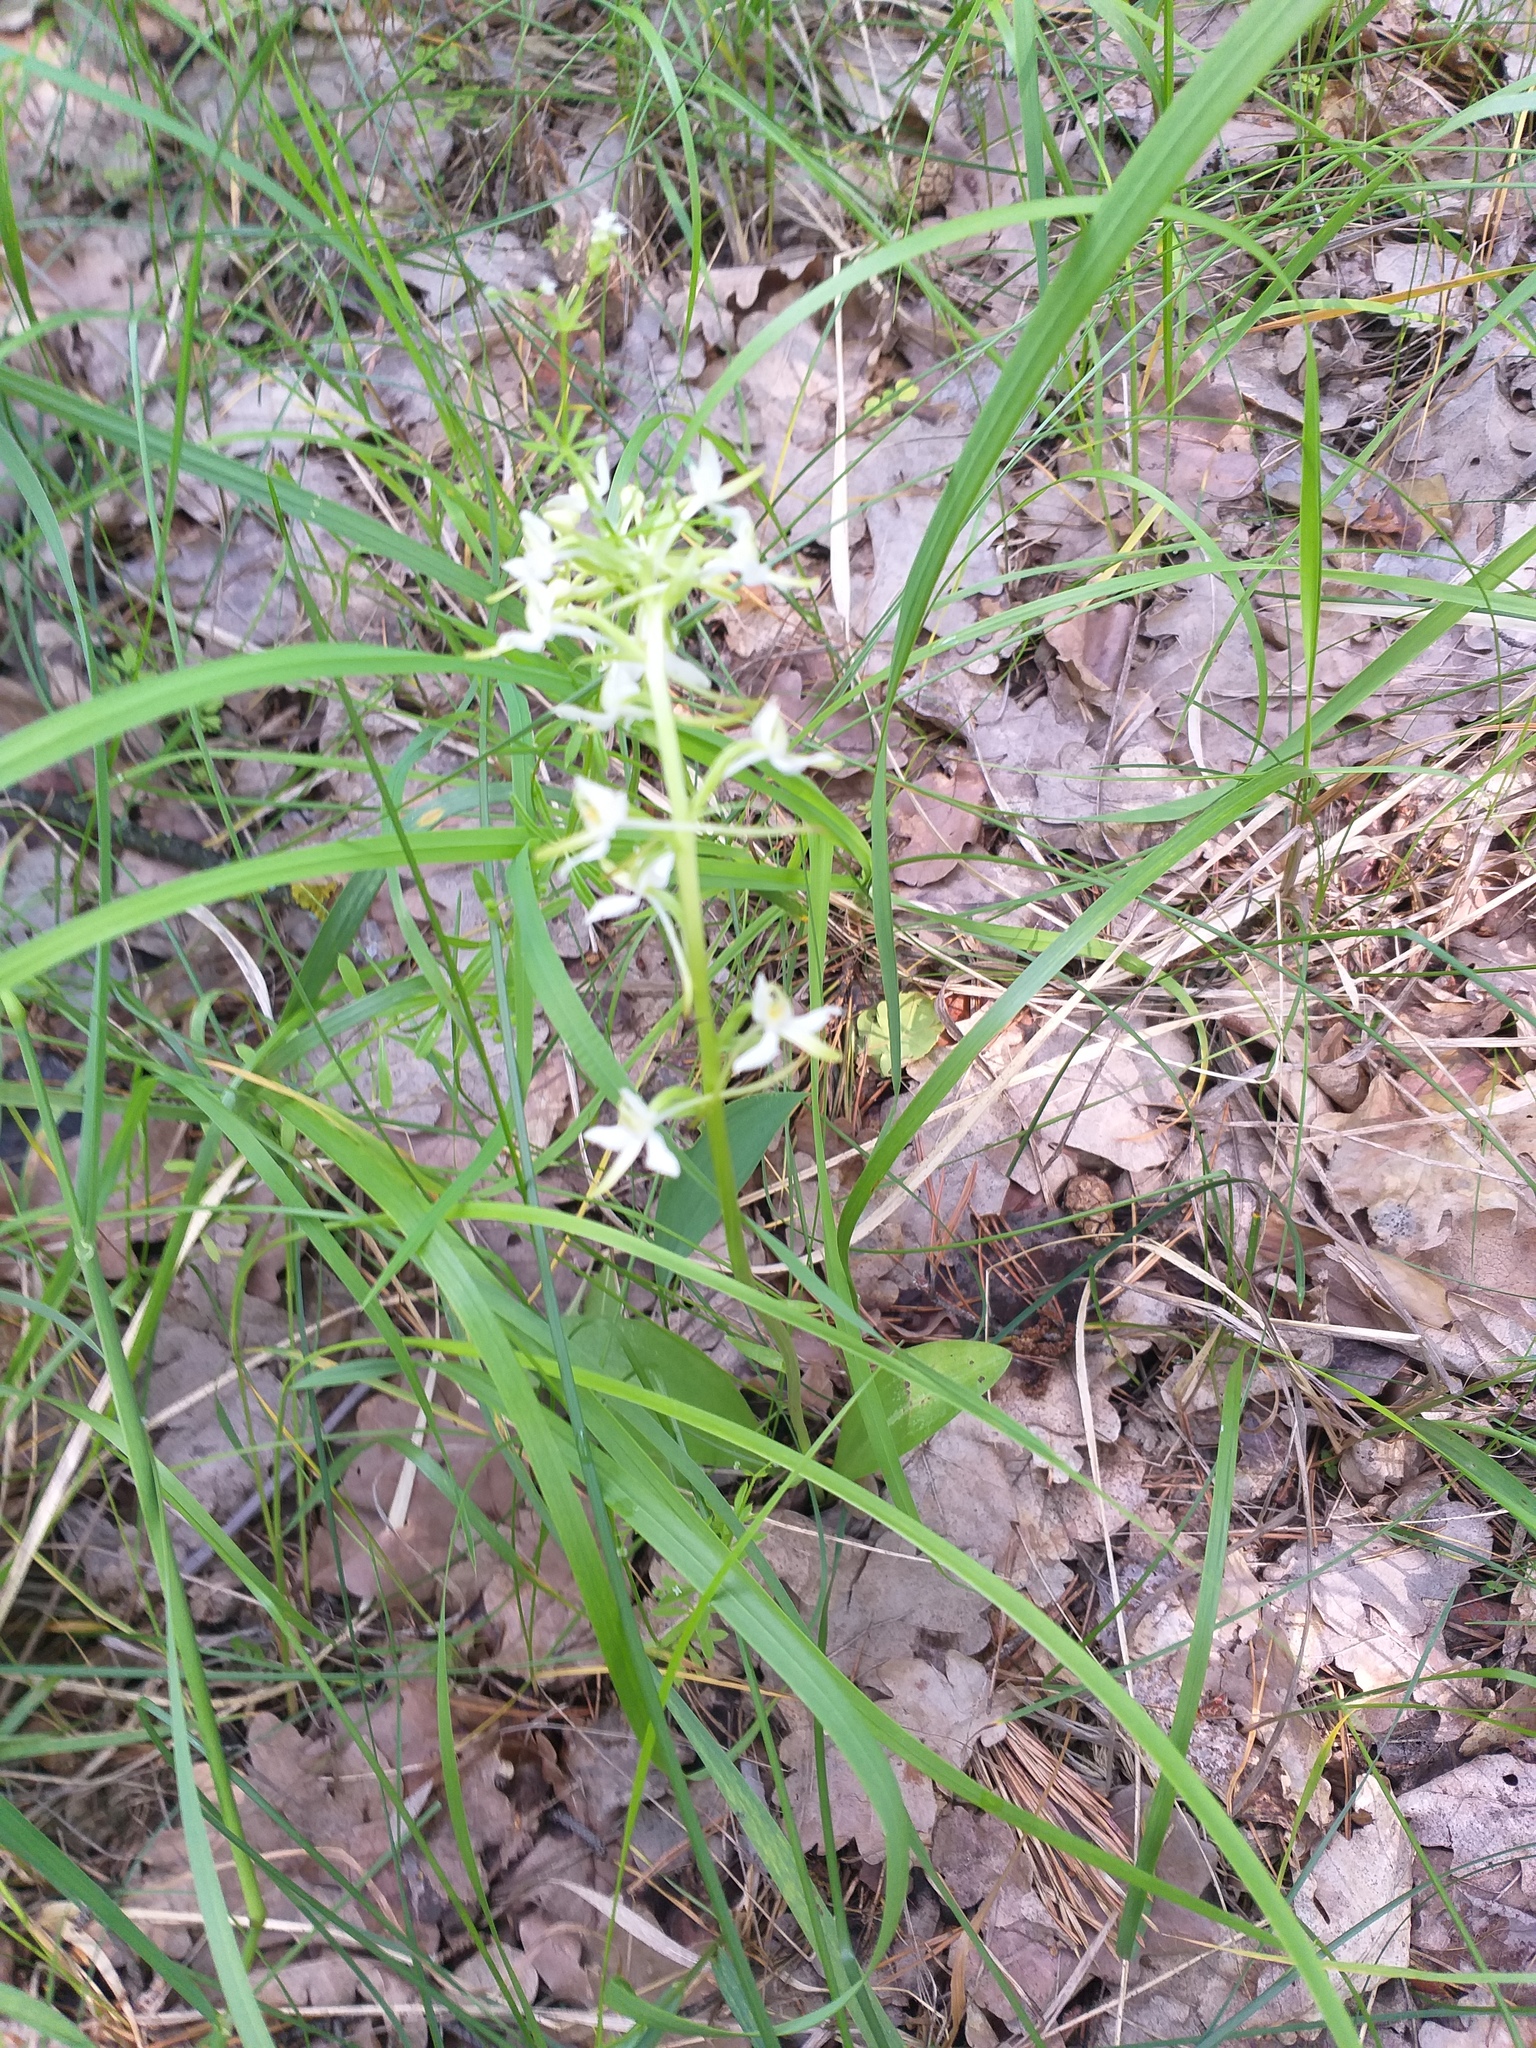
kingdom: Plantae
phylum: Tracheophyta
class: Liliopsida
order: Asparagales
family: Orchidaceae
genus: Platanthera
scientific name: Platanthera bifolia
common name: Lesser butterfly-orchid
